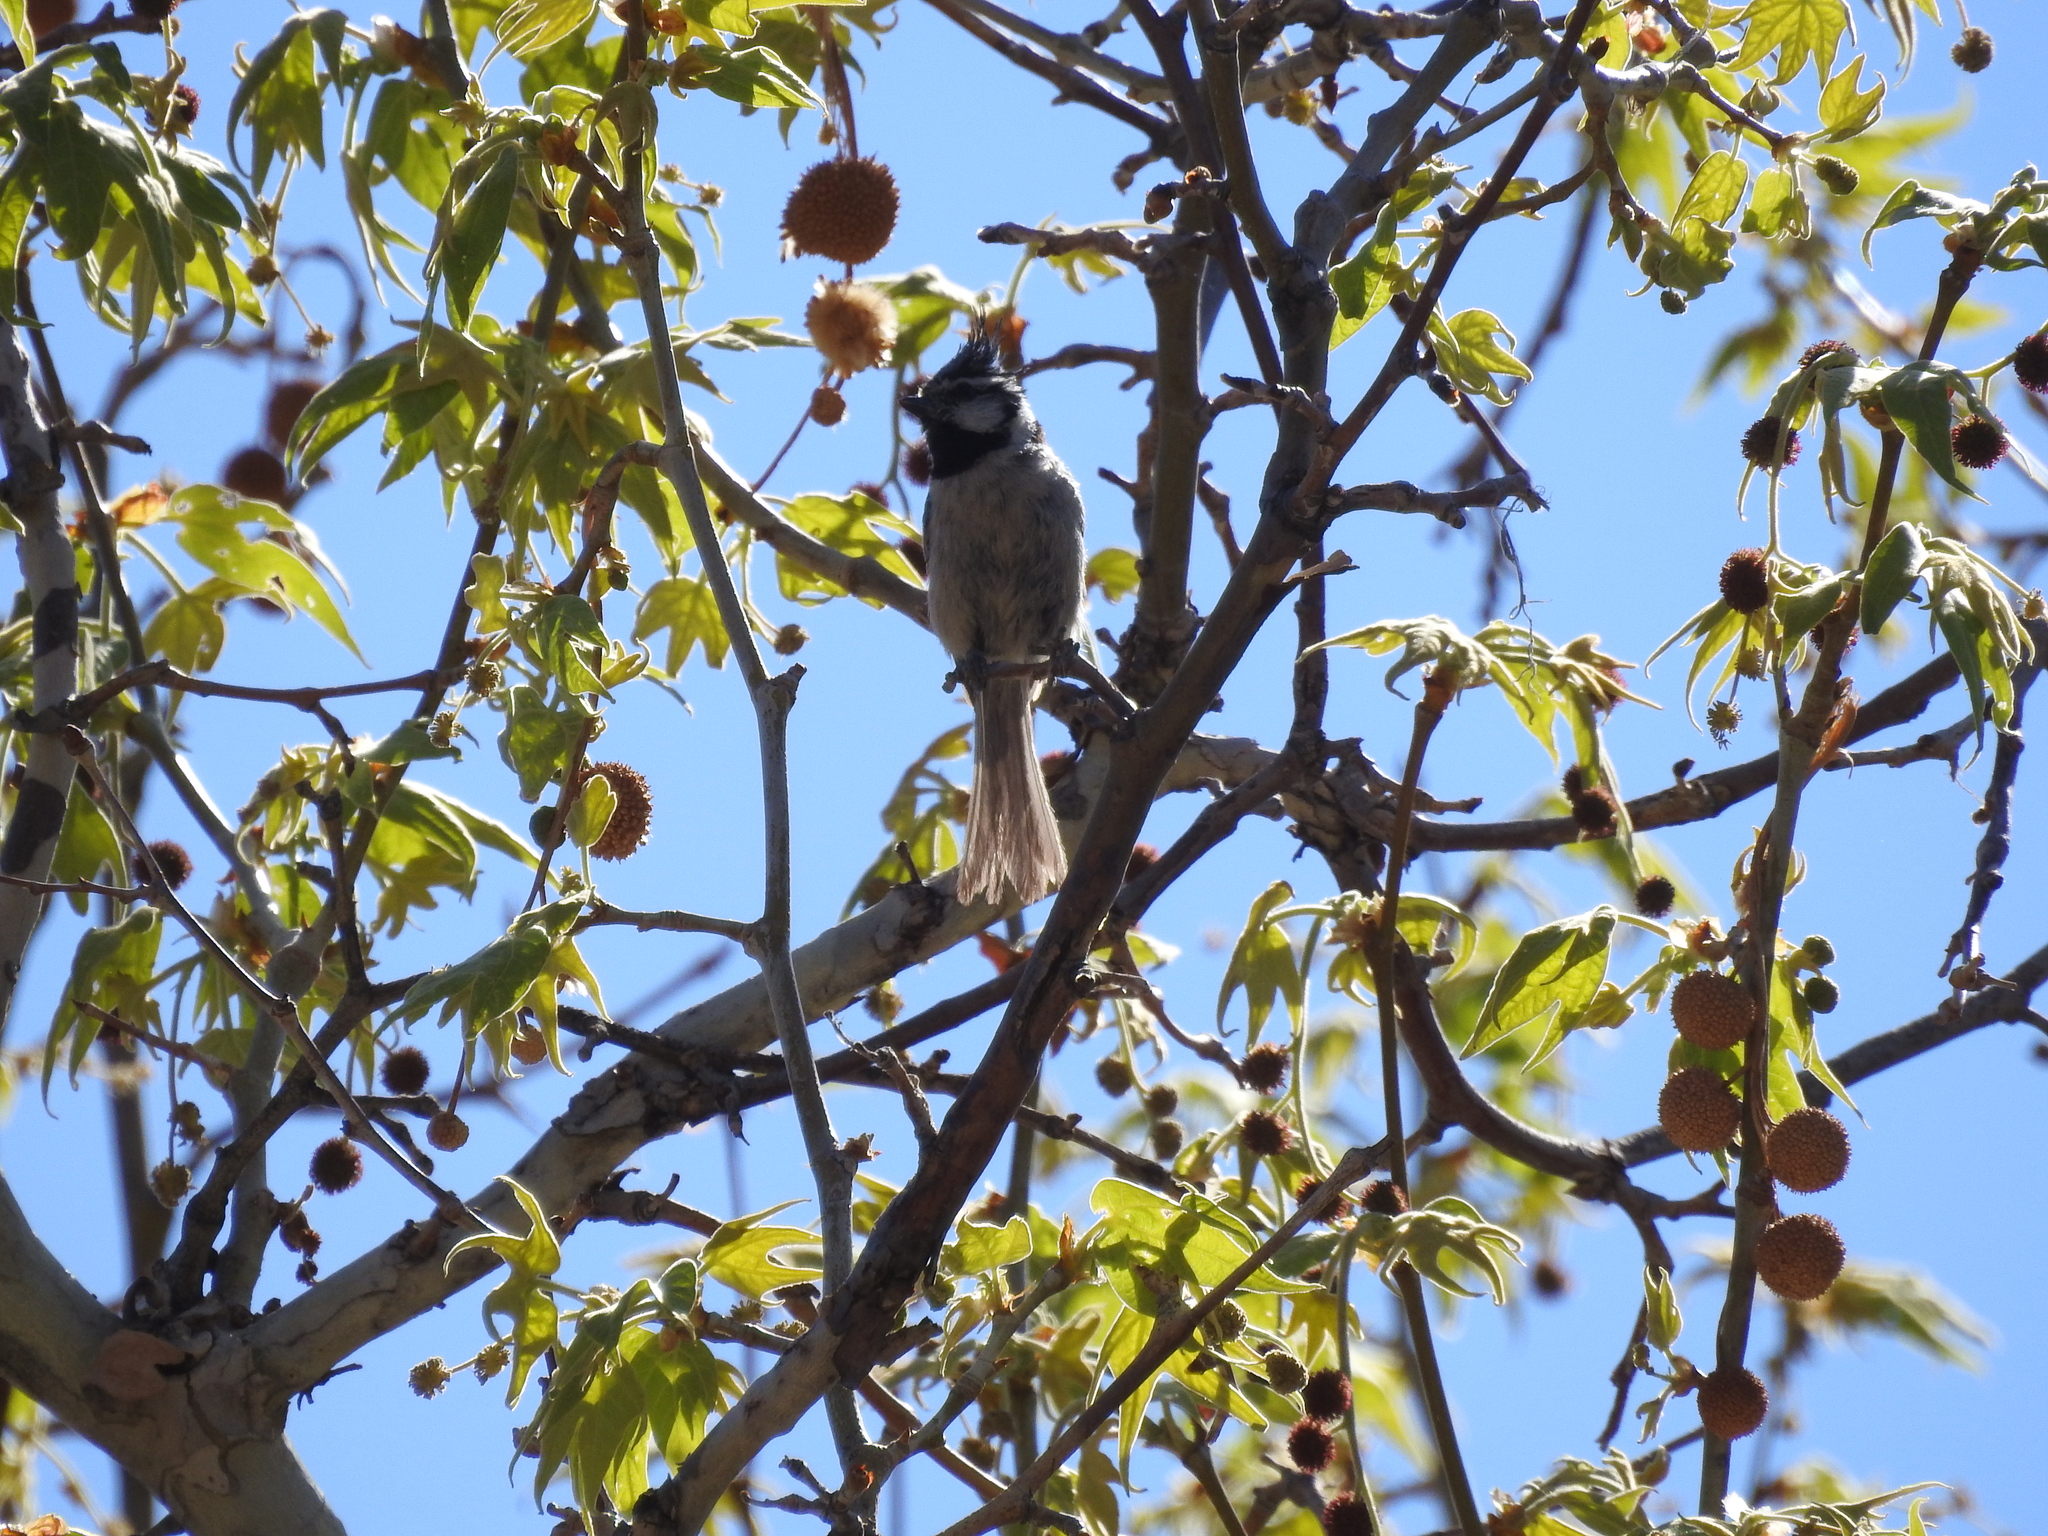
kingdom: Animalia
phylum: Chordata
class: Aves
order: Passeriformes
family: Paridae
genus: Baeolophus
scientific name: Baeolophus wollweberi
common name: Bridled titmouse
